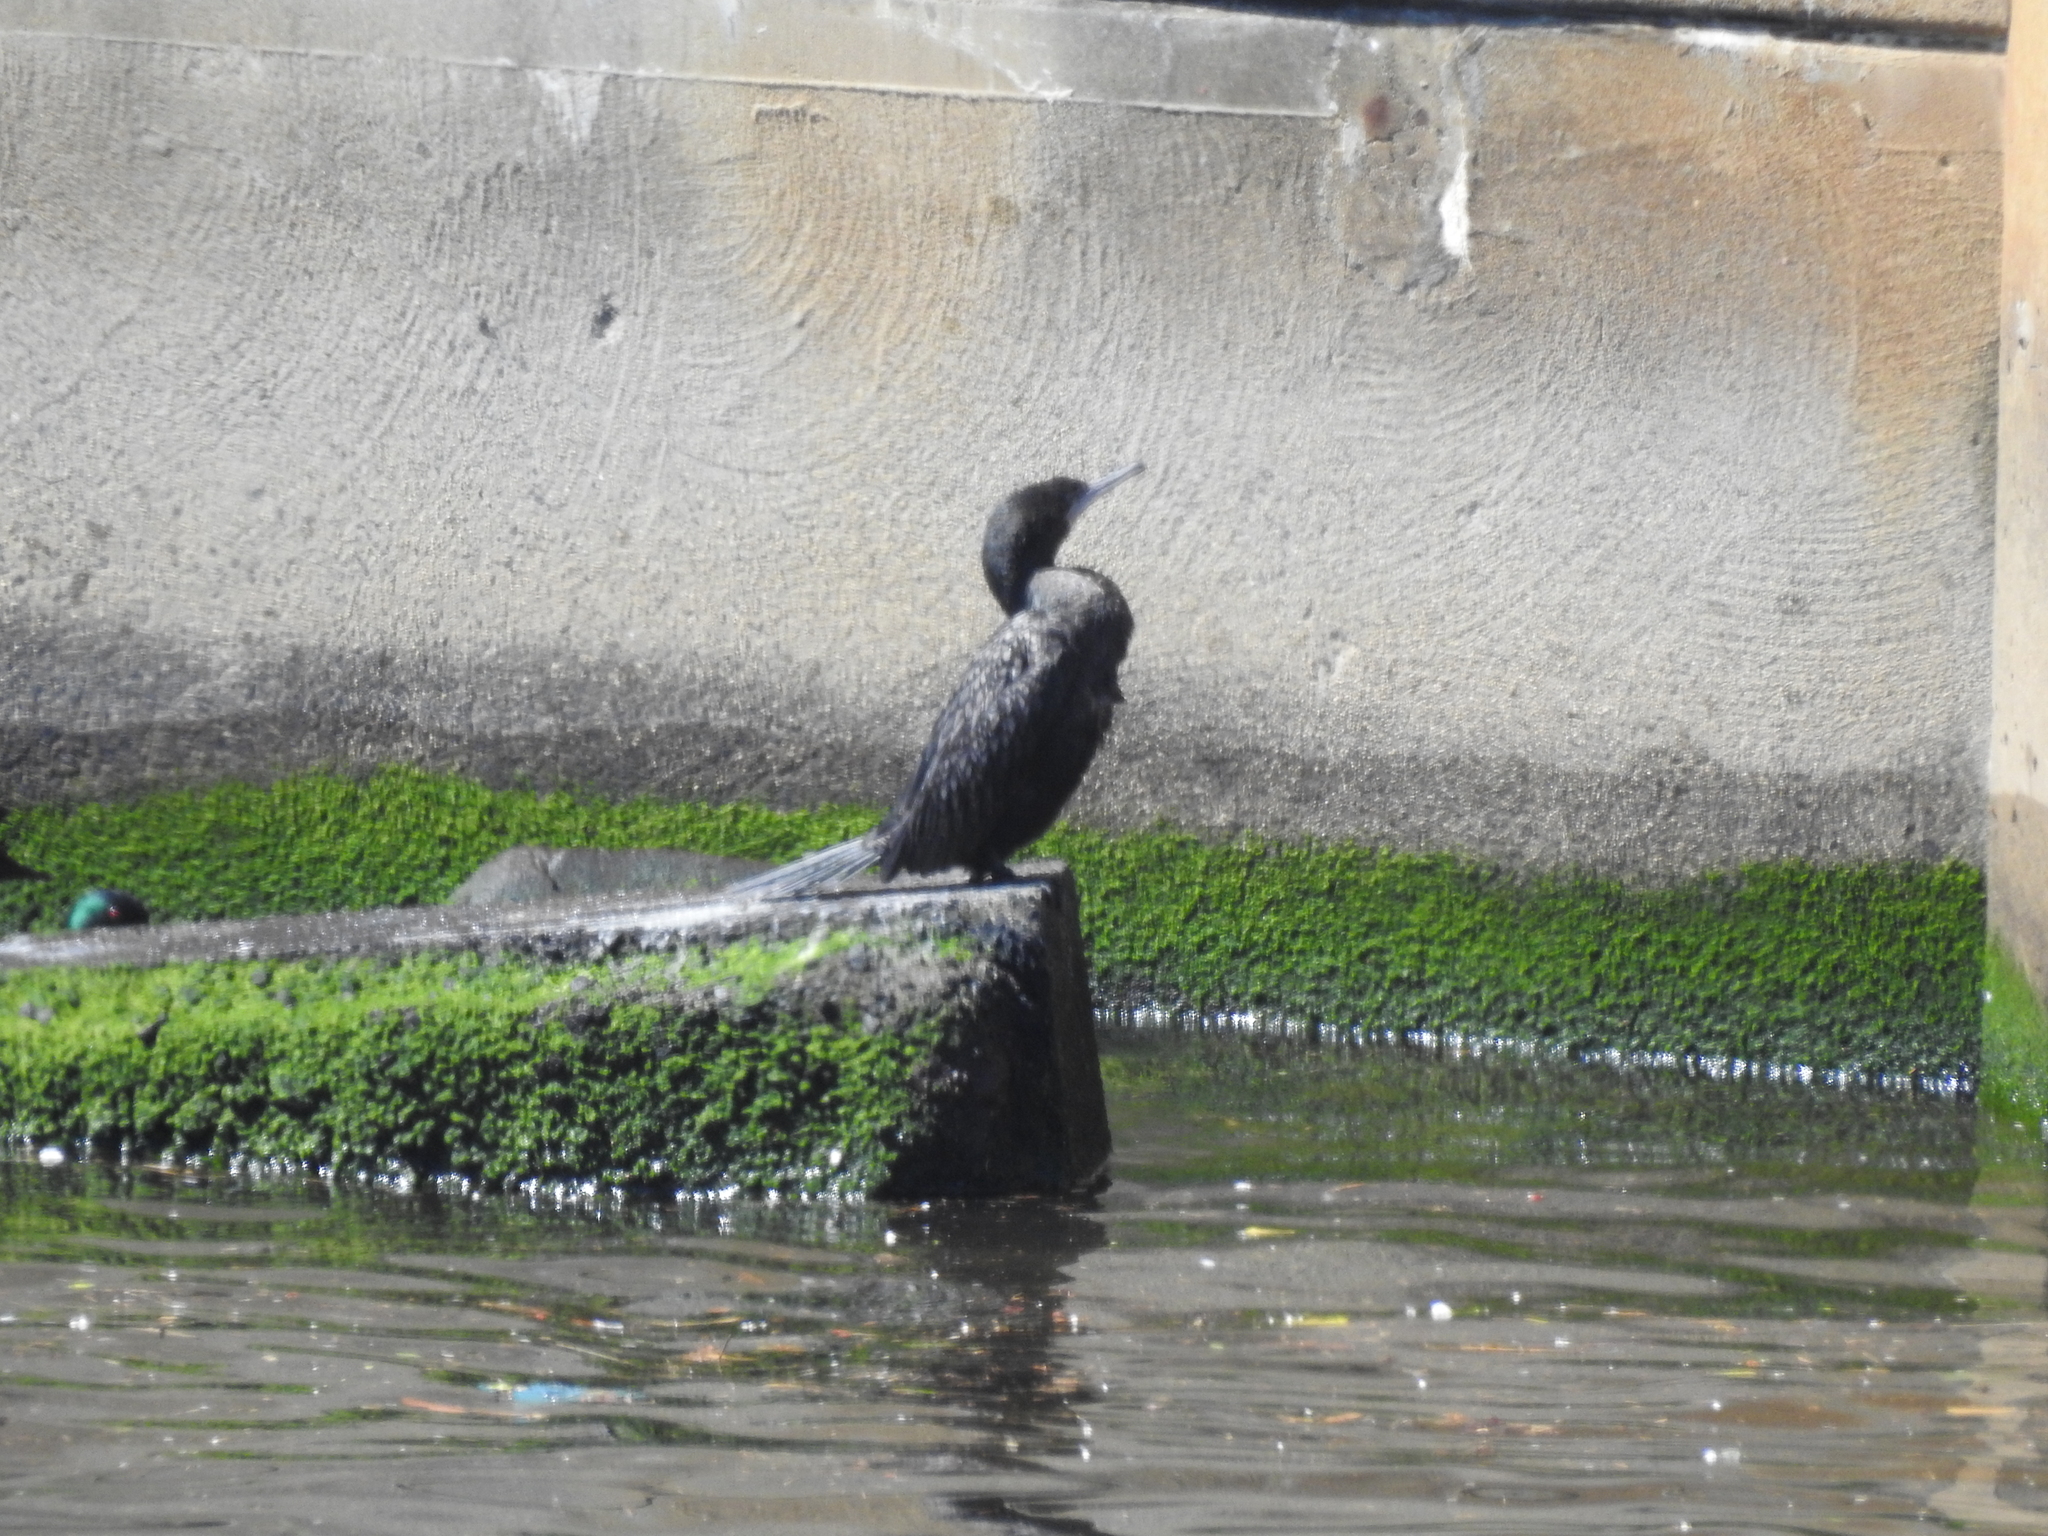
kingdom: Animalia
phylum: Chordata
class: Aves
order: Suliformes
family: Phalacrocoracidae
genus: Phalacrocorax
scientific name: Phalacrocorax sulcirostris
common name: Little black cormorant
